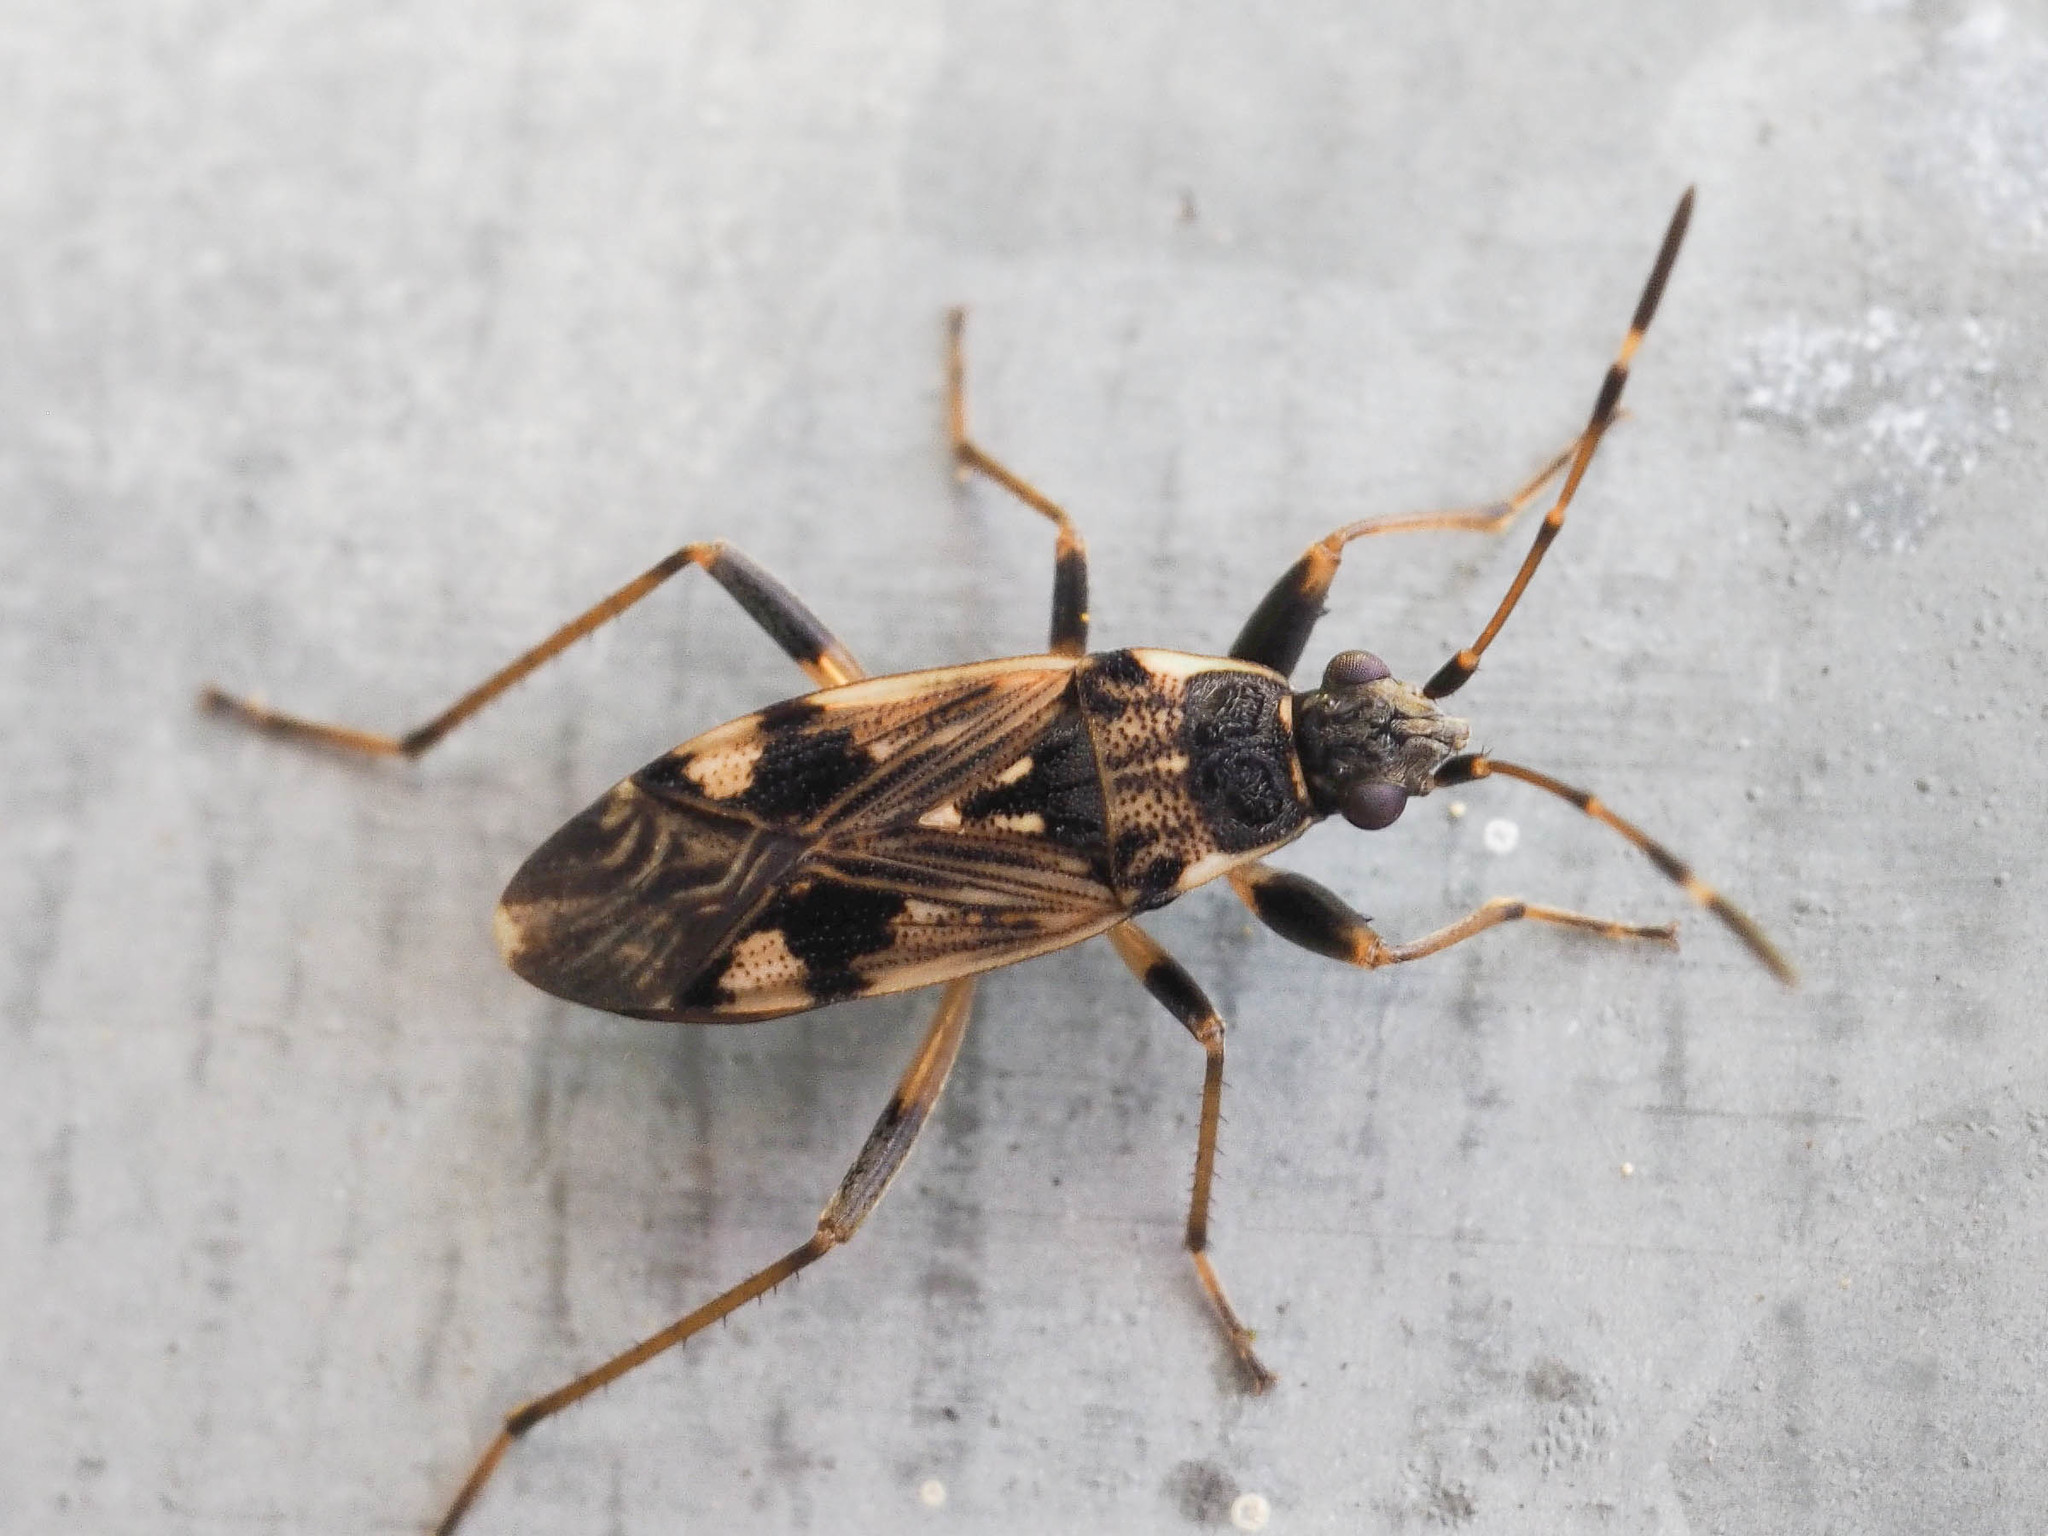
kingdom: Animalia
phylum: Arthropoda
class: Insecta
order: Hemiptera
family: Rhyparochromidae
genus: Beosus
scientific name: Beosus maritimus
